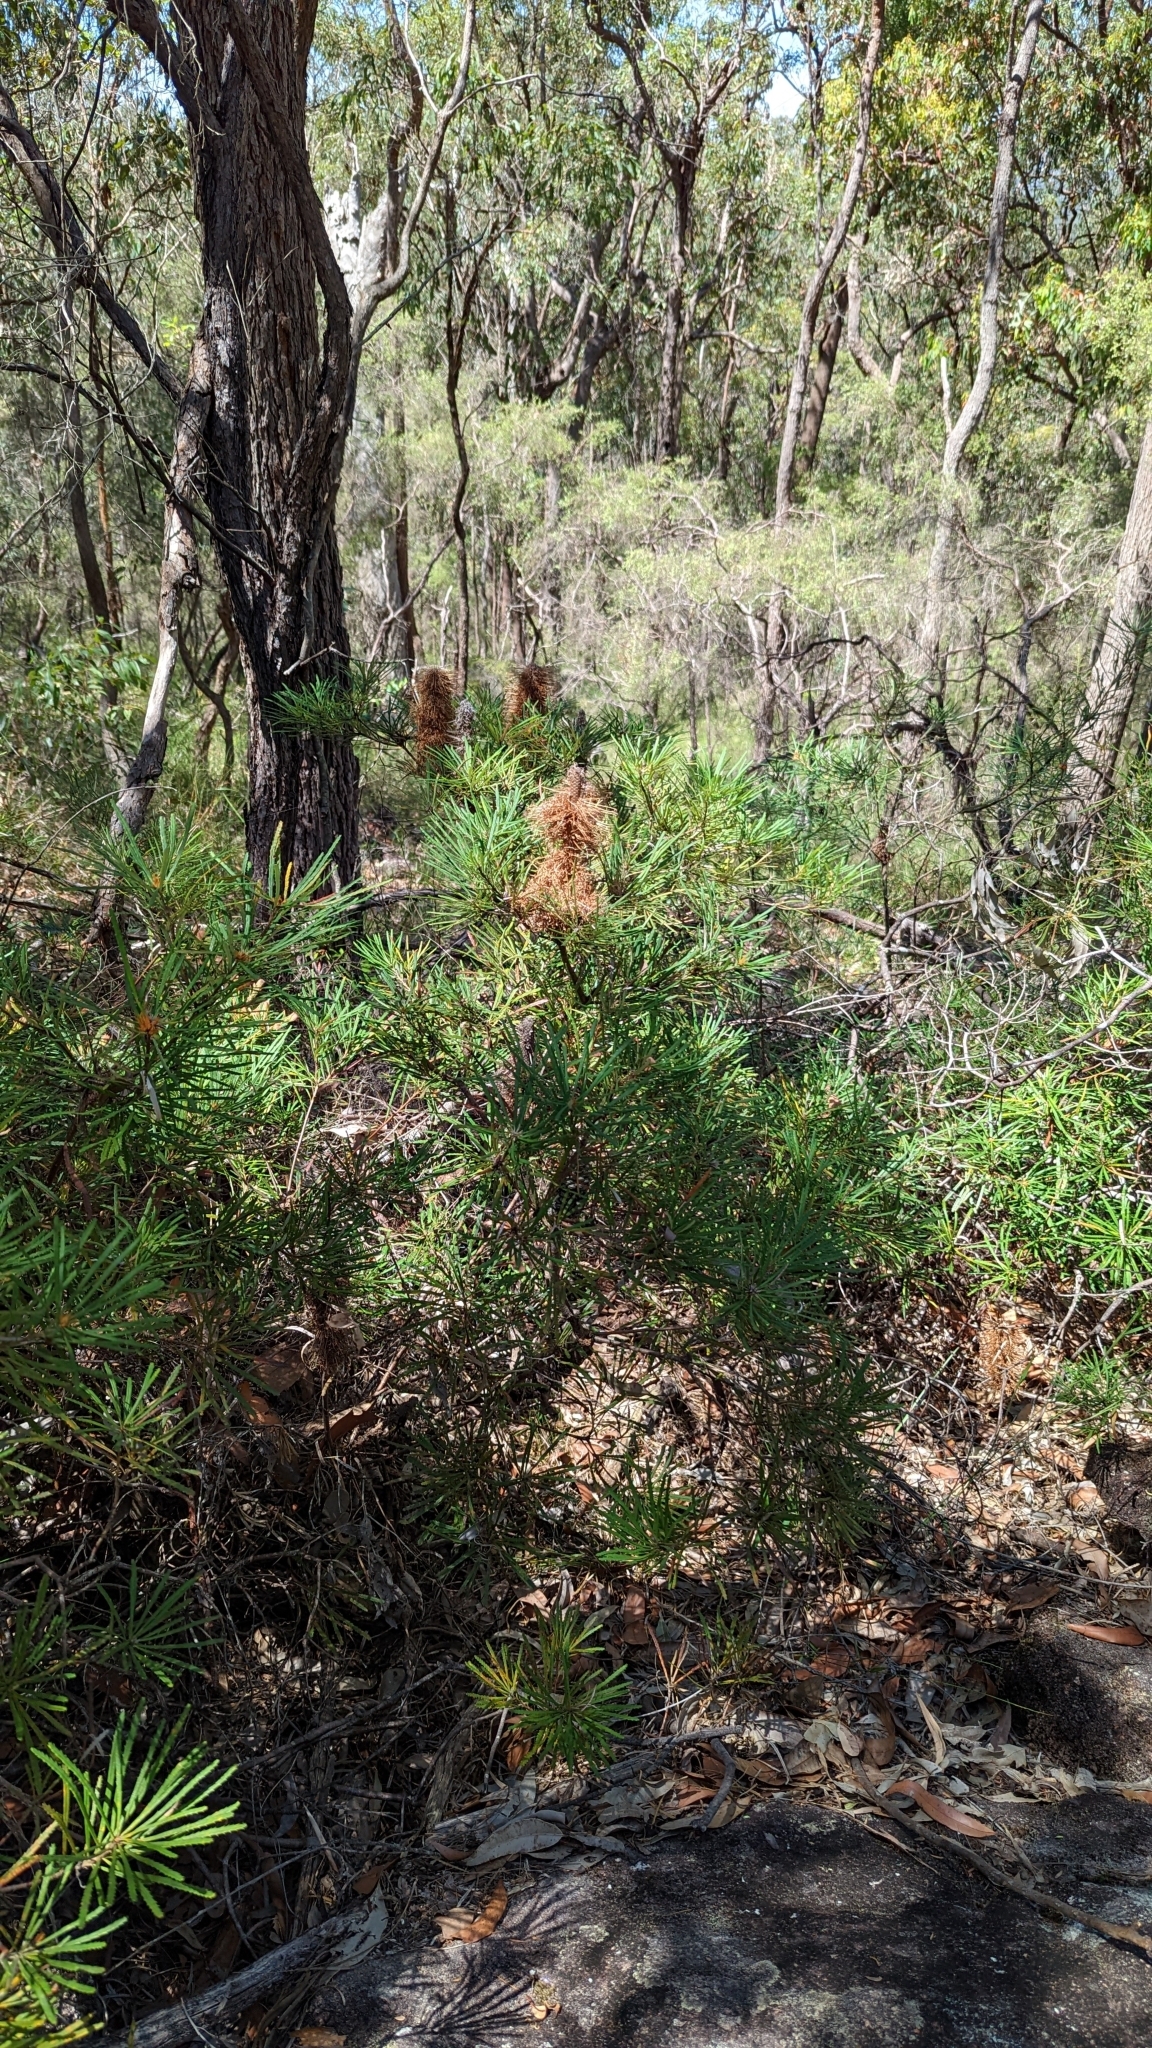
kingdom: Plantae
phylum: Tracheophyta
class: Magnoliopsida
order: Proteales
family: Proteaceae
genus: Banksia
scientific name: Banksia spinulosa
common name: Hairpin banksia
